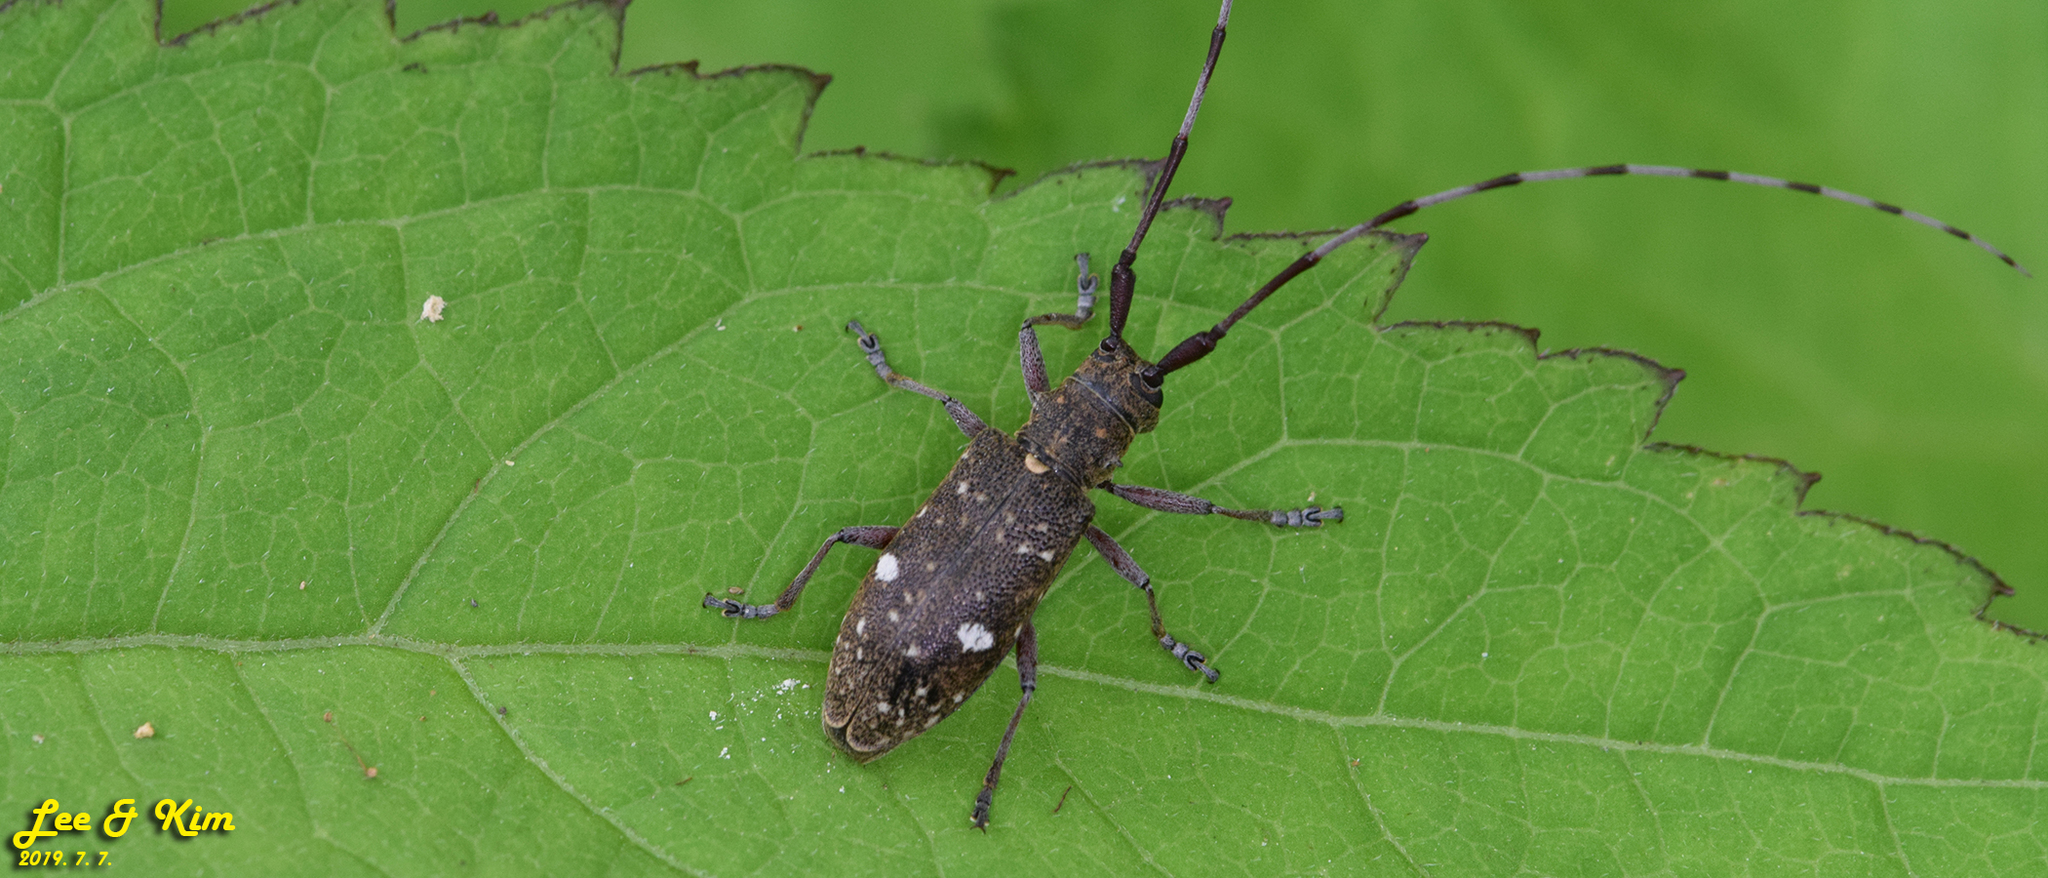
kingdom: Animalia
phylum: Arthropoda
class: Insecta
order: Coleoptera
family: Cerambycidae
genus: Monochamus
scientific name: Monochamus guttulatus
